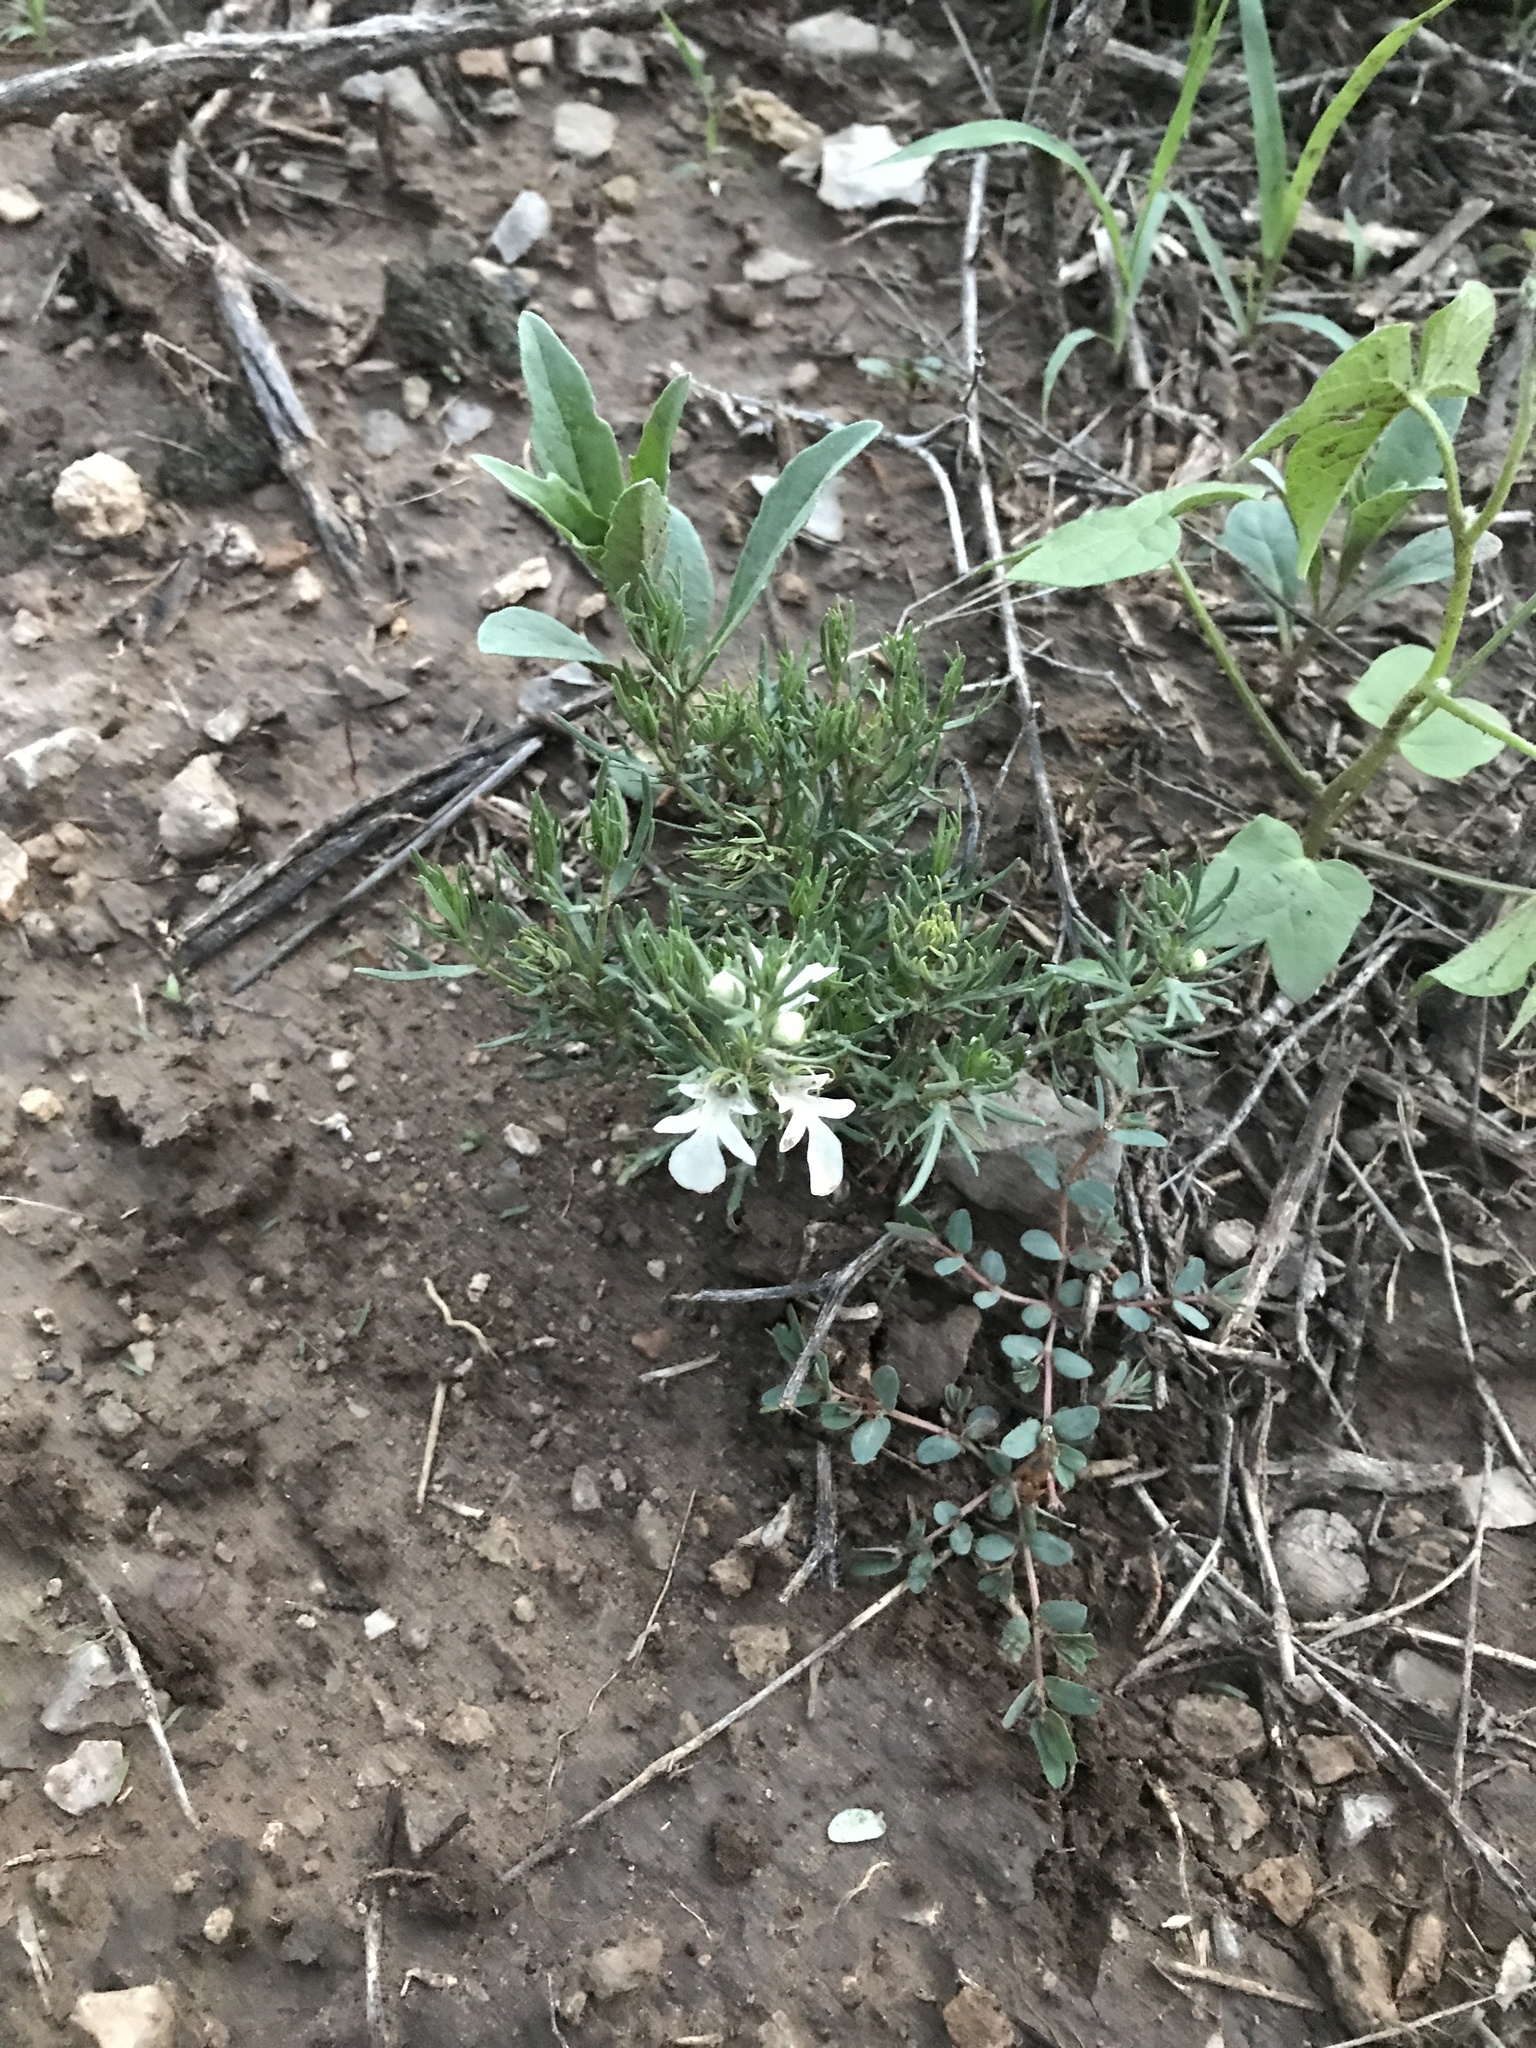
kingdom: Plantae
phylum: Tracheophyta
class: Magnoliopsida
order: Lamiales
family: Lamiaceae
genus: Teucrium
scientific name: Teucrium laciniatum
